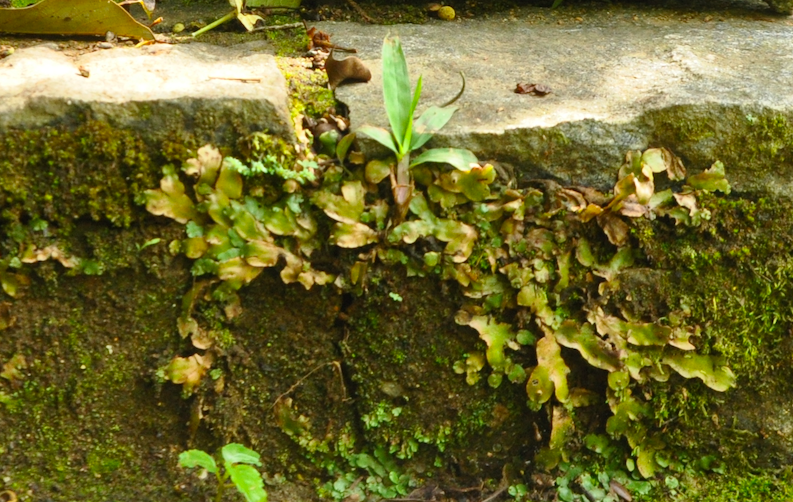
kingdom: Plantae
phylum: Marchantiophyta
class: Marchantiopsida
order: Marchantiales
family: Marchantiaceae
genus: Marchantia
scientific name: Marchantia pappeana
